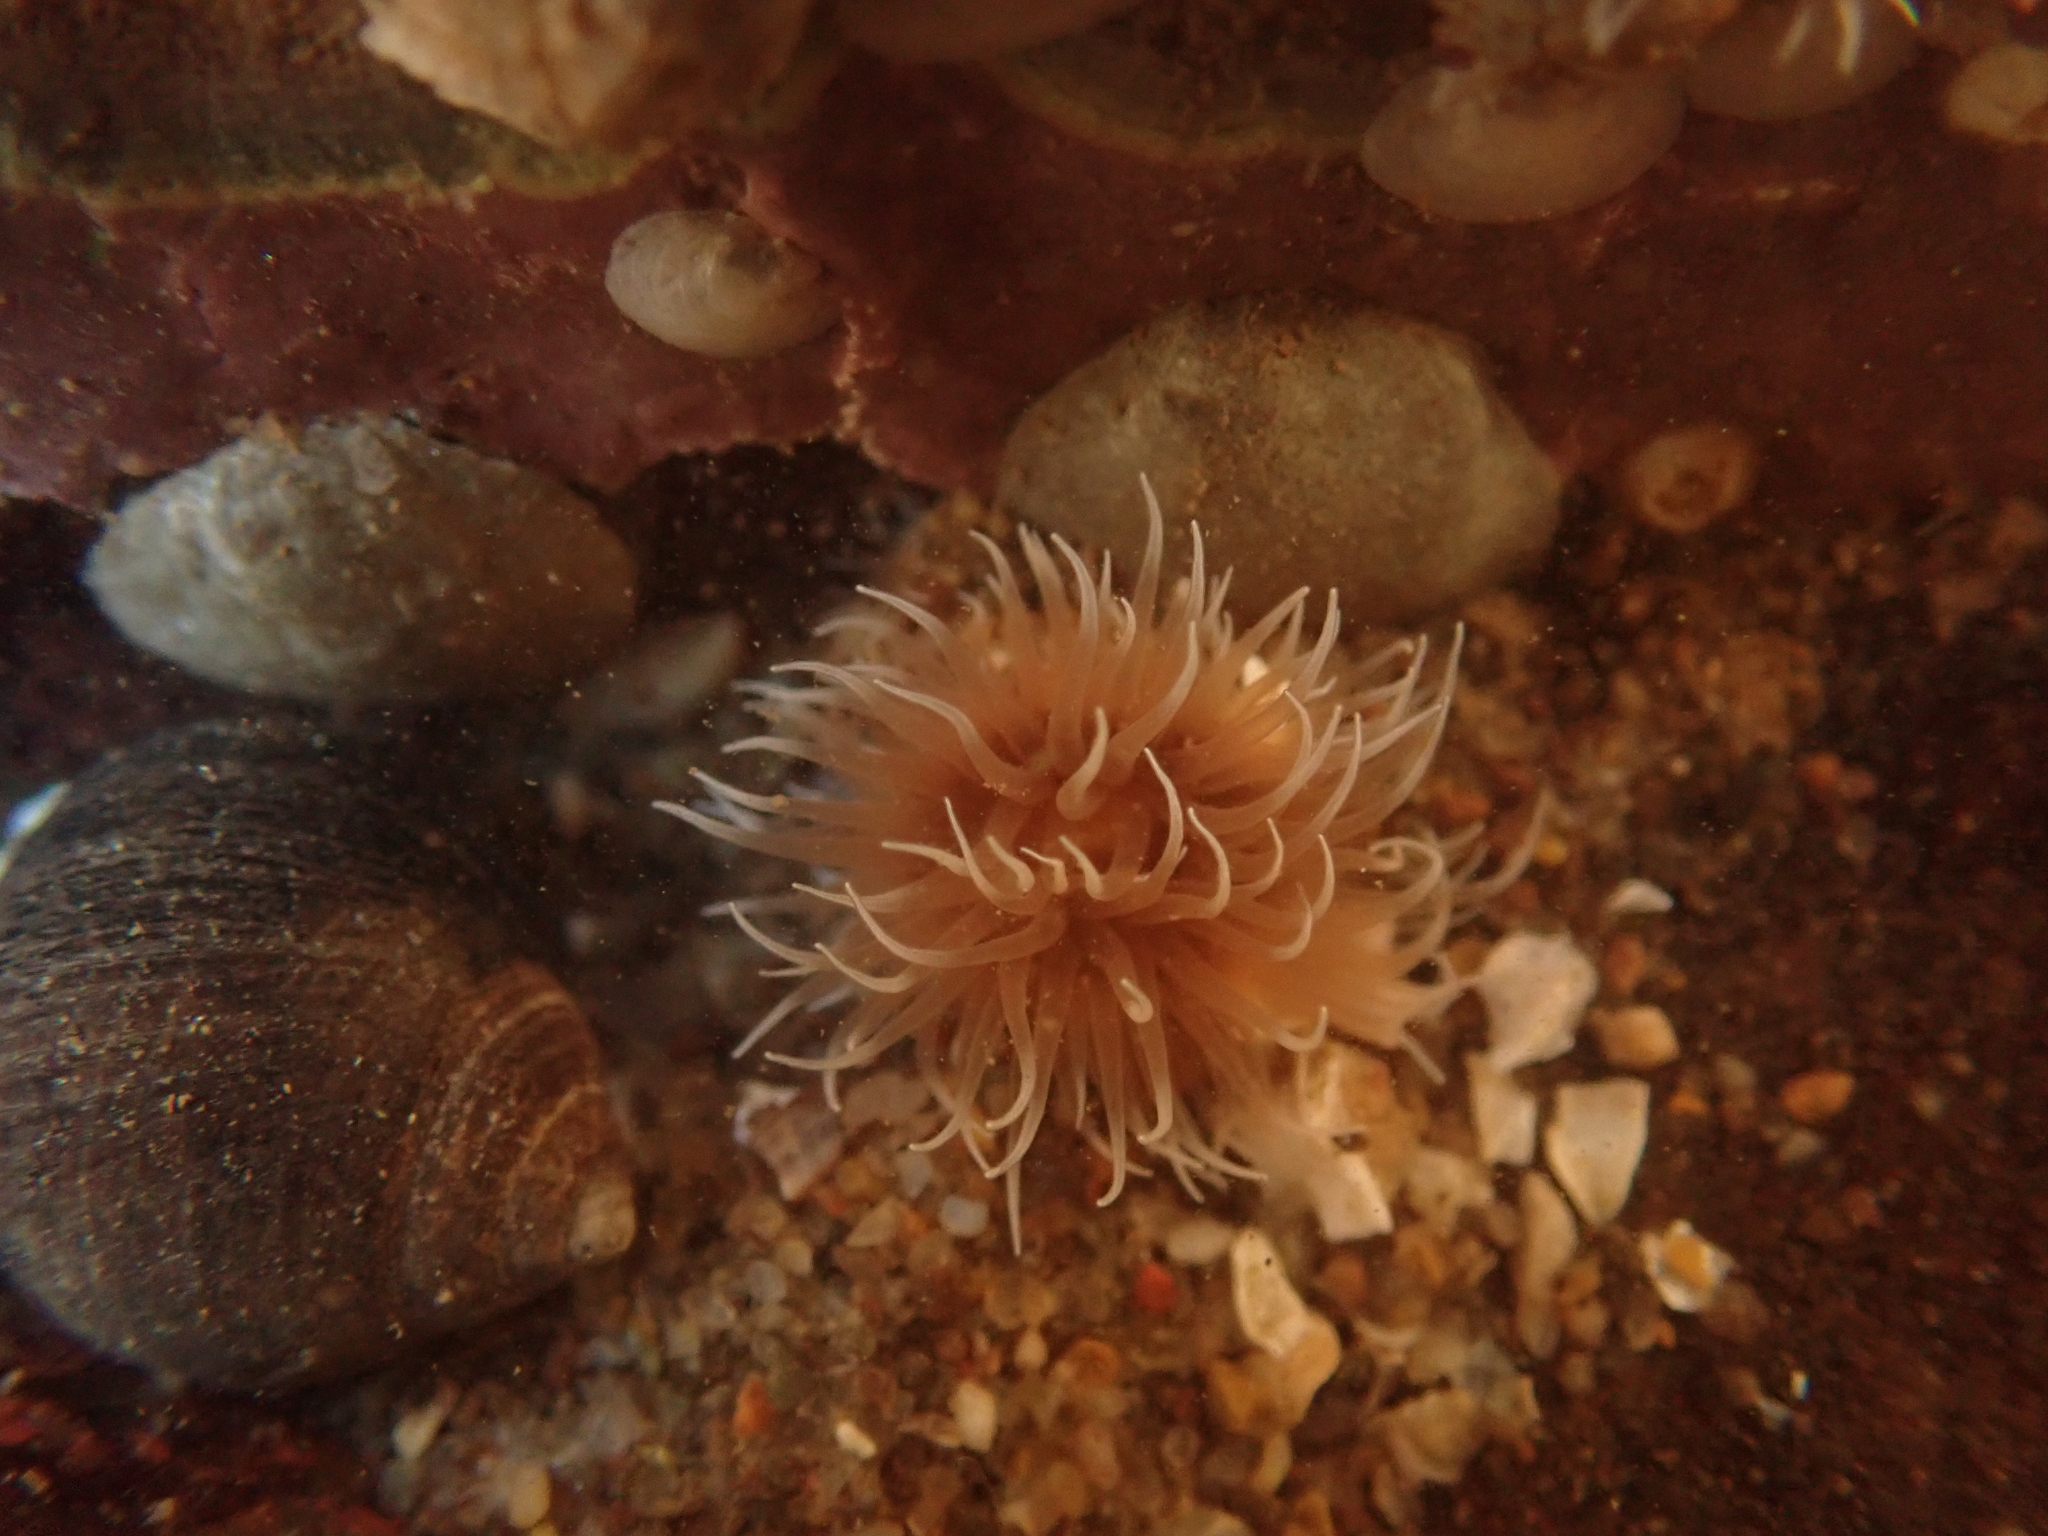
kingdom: Animalia
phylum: Cnidaria
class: Anthozoa
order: Actiniaria
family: Metridiidae
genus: Metridium
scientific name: Metridium senile
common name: Clonal plumose anemone
